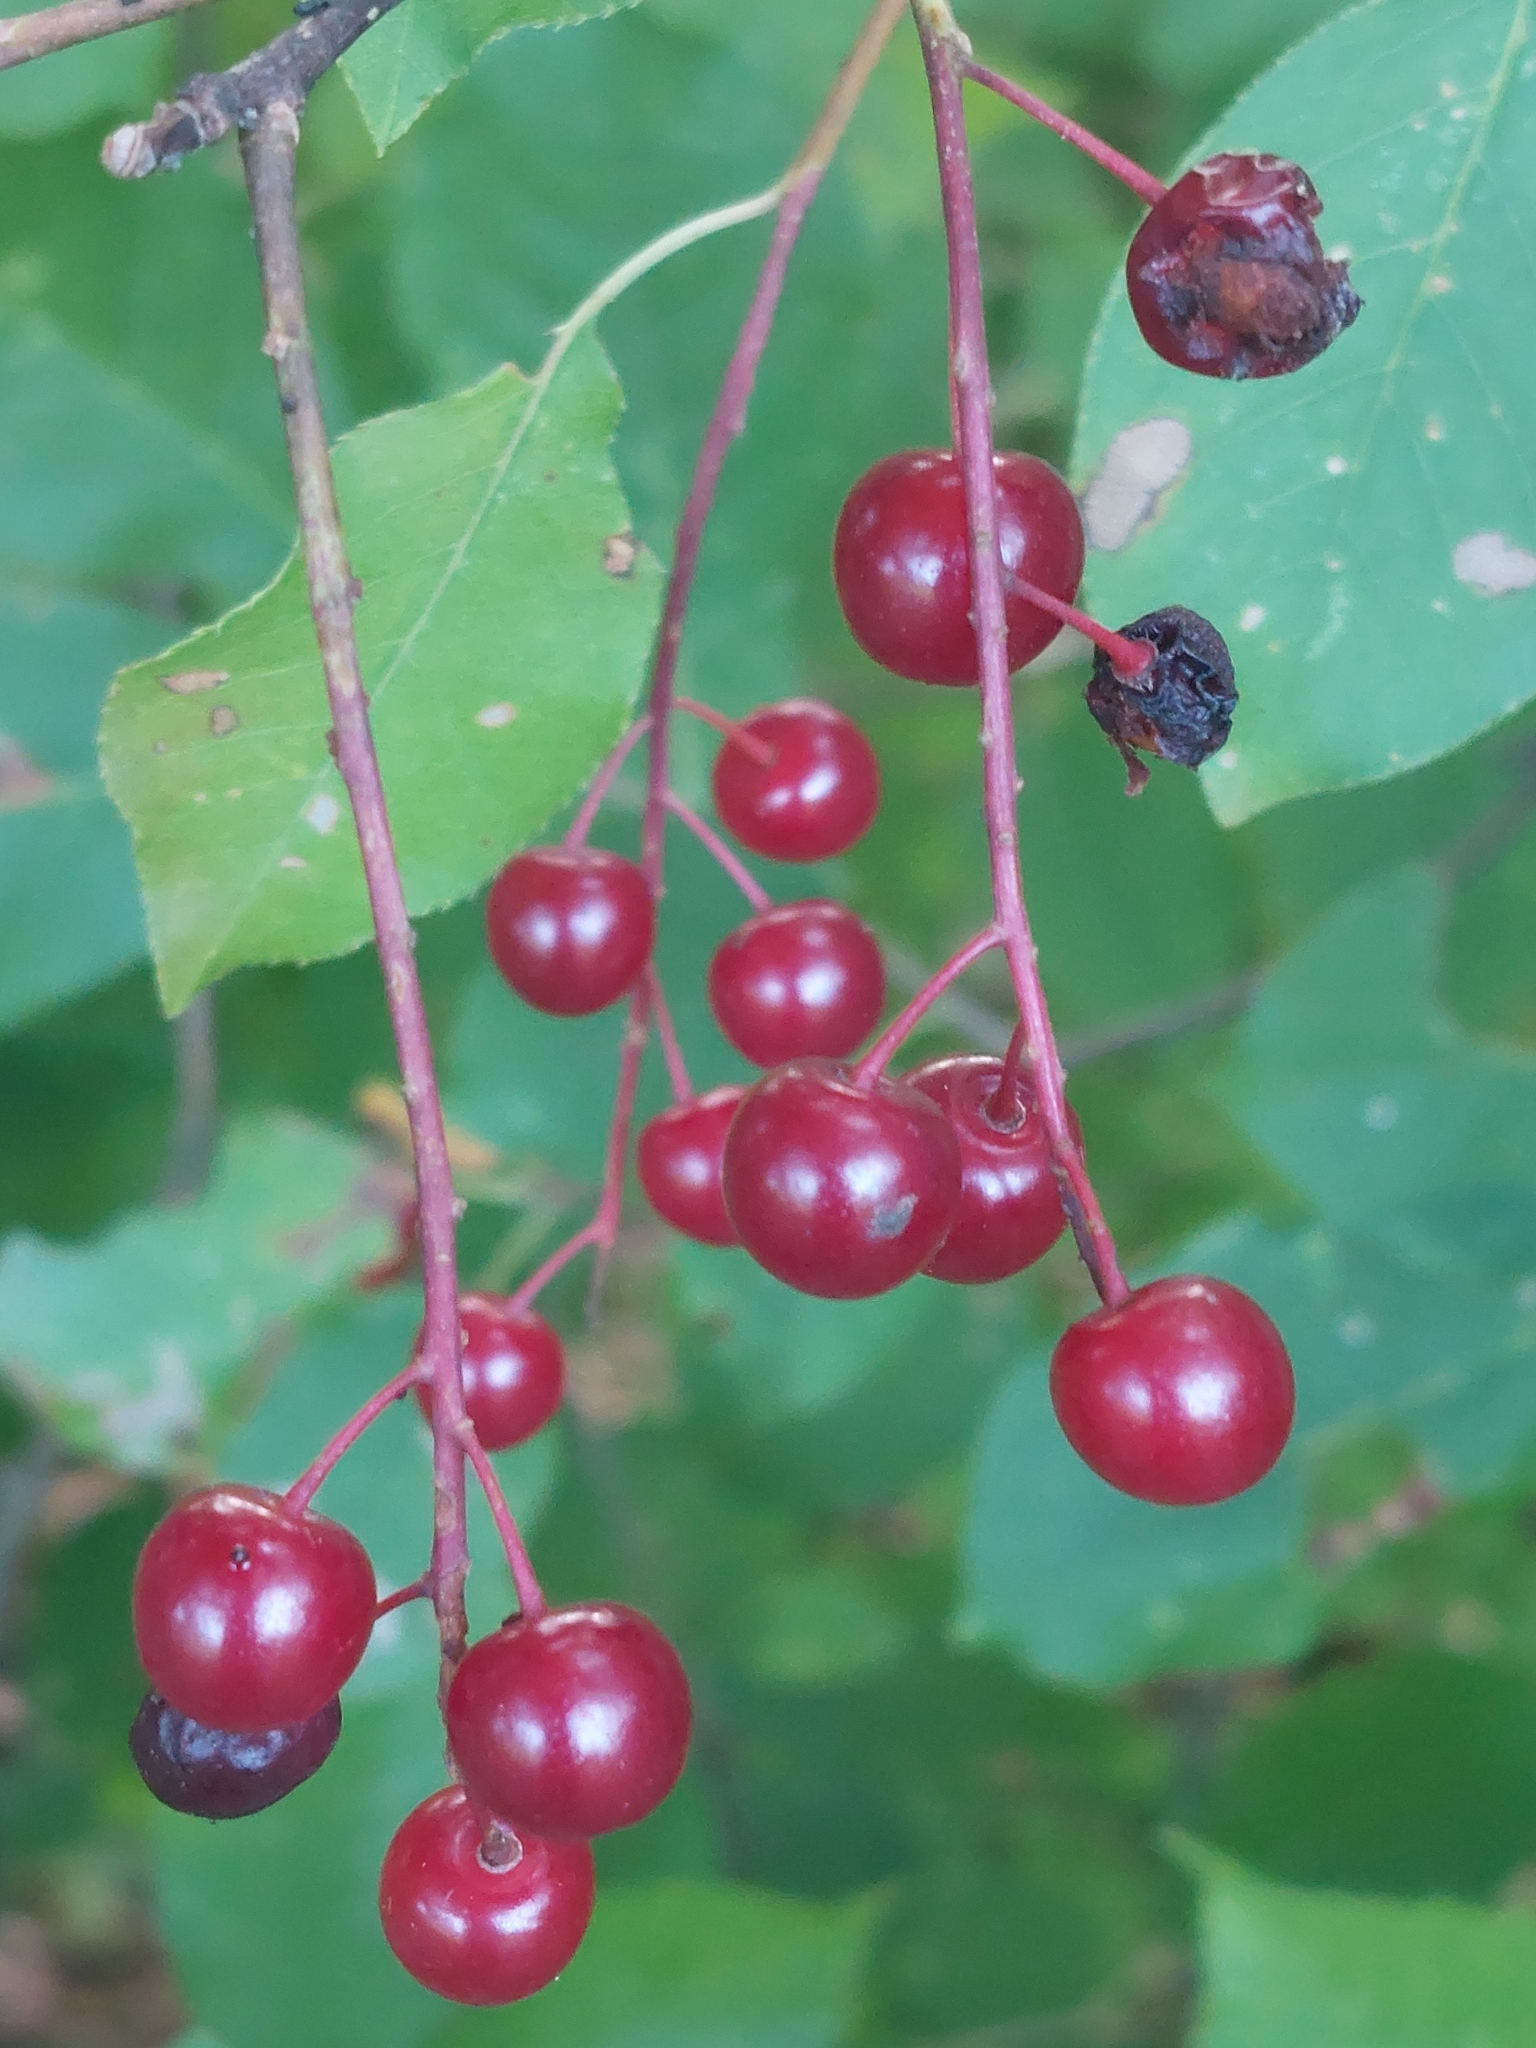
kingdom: Plantae
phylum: Tracheophyta
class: Magnoliopsida
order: Rosales
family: Rosaceae
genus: Prunus
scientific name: Prunus virginiana
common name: Chokecherry
